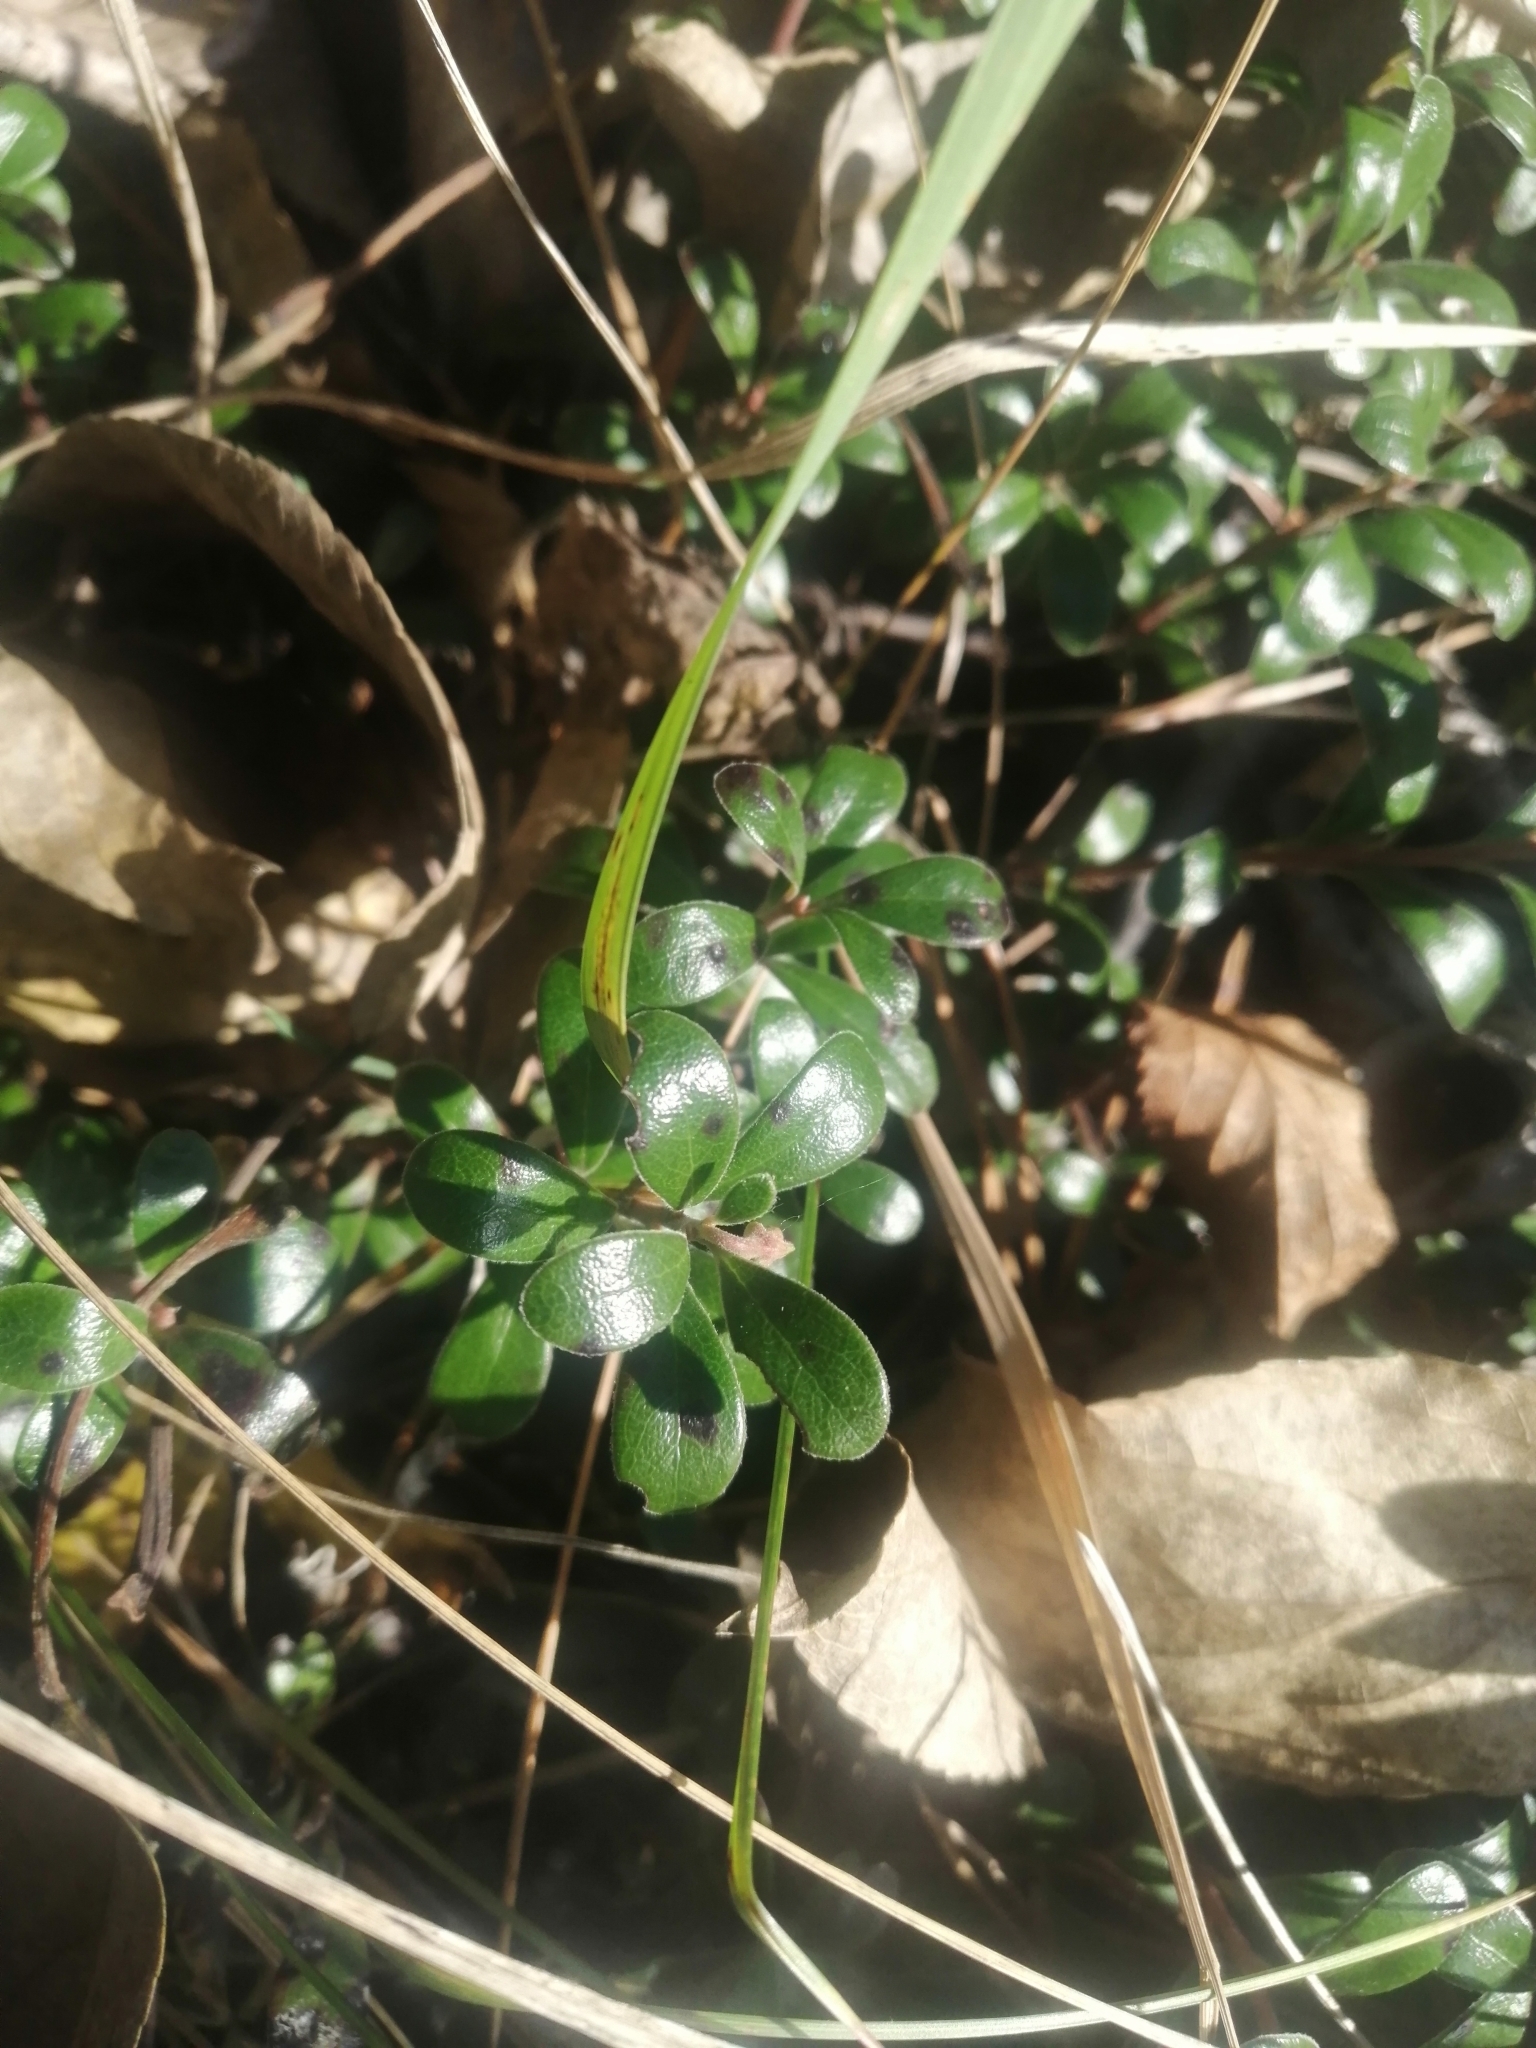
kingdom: Plantae
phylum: Tracheophyta
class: Magnoliopsida
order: Ericales
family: Ericaceae
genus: Arctostaphylos
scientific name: Arctostaphylos uva-ursi
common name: Bearberry
